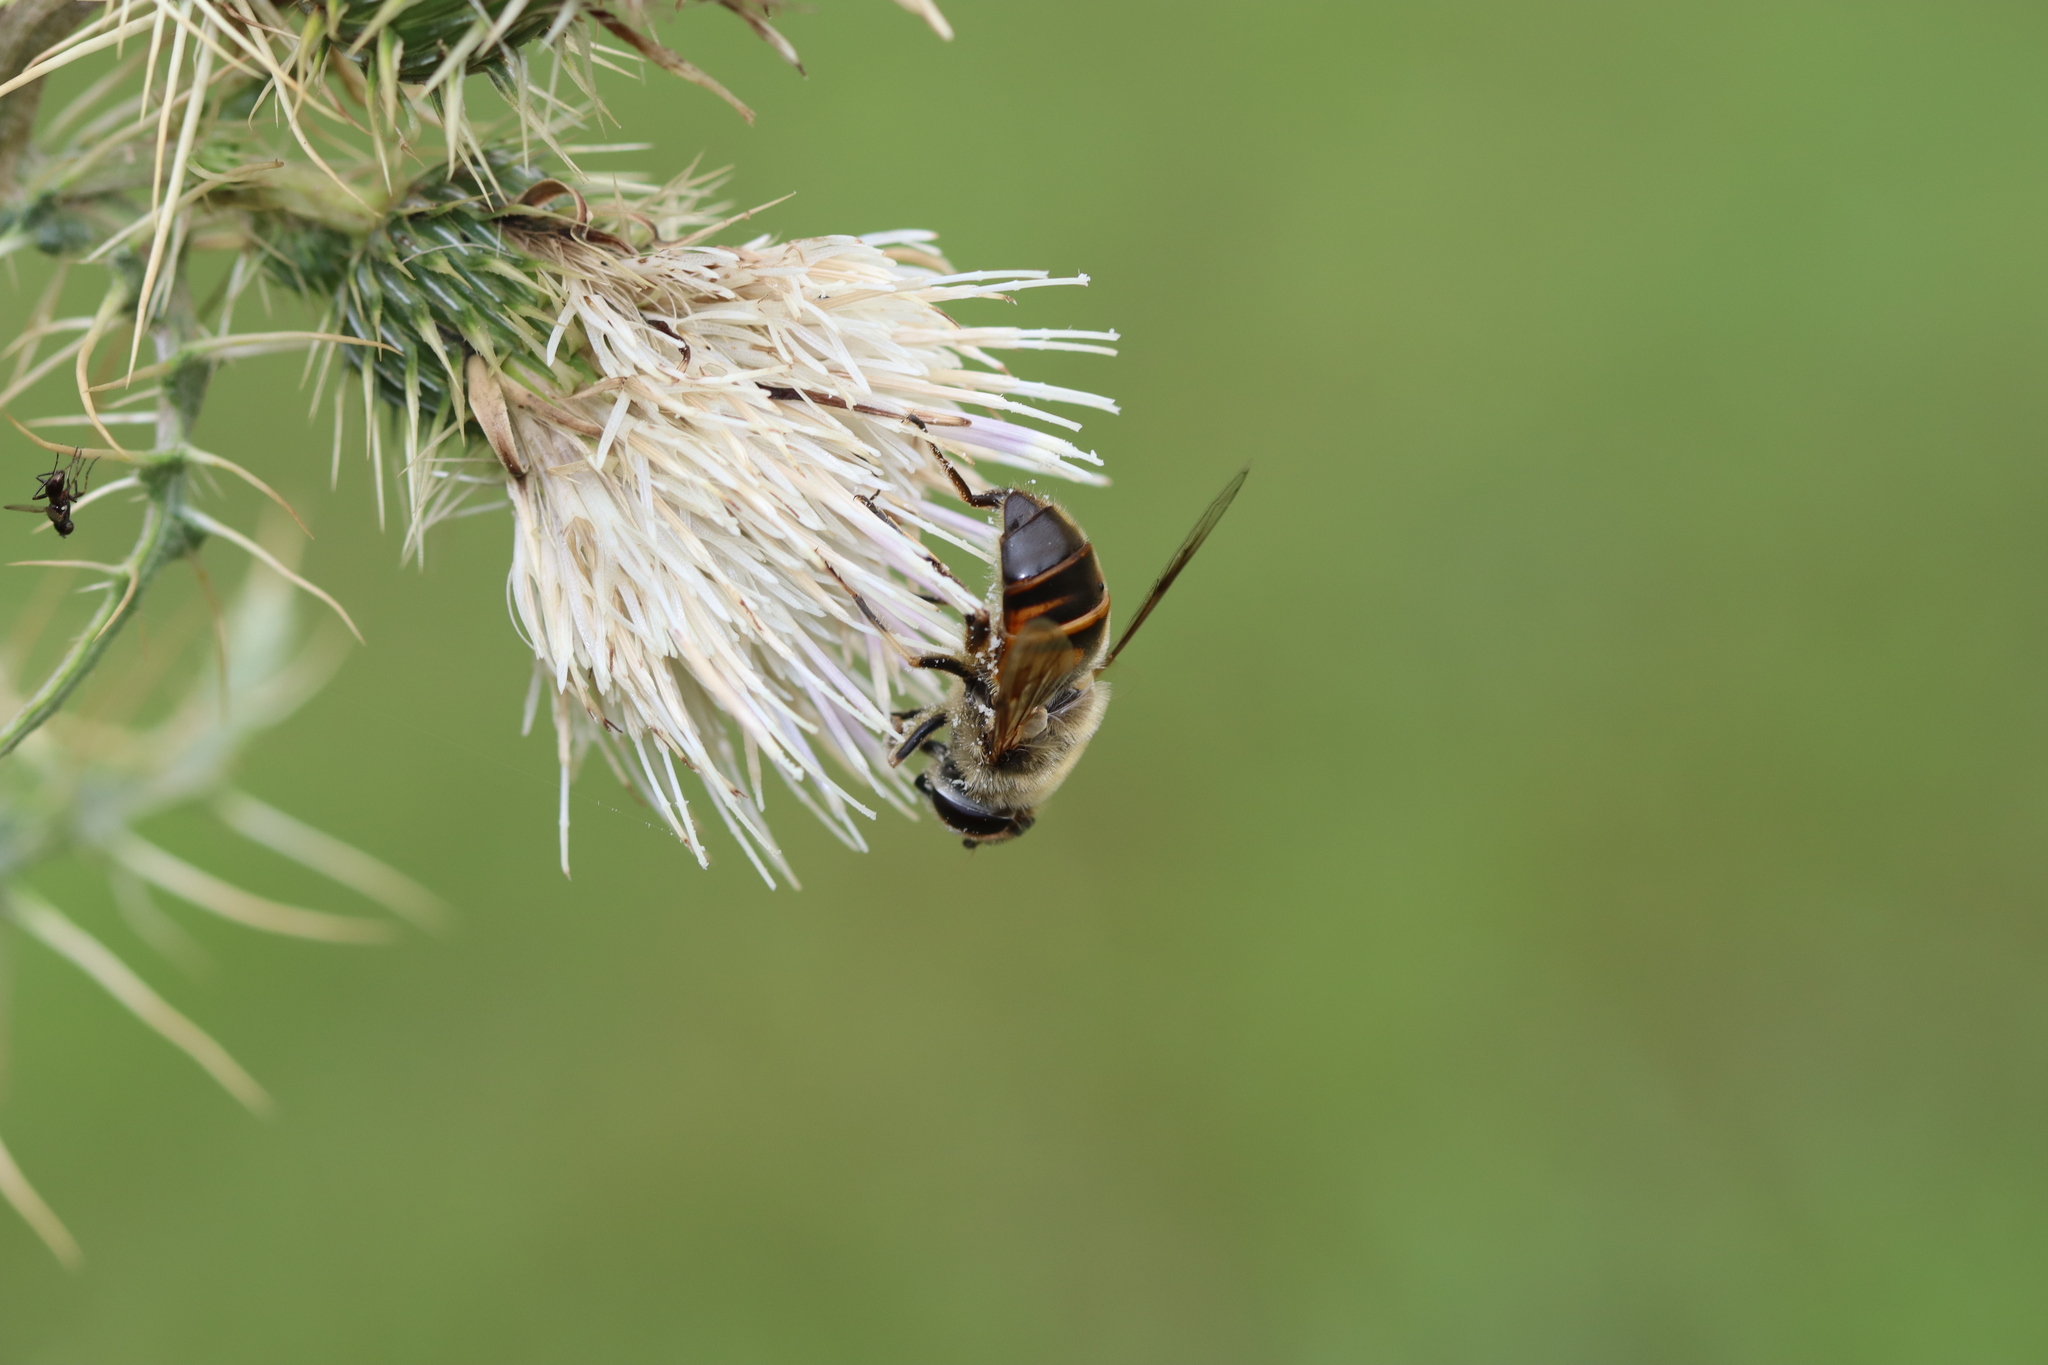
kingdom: Animalia
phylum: Arthropoda
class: Insecta
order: Diptera
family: Syrphidae
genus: Eristalis
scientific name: Eristalis tenax
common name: Drone fly
